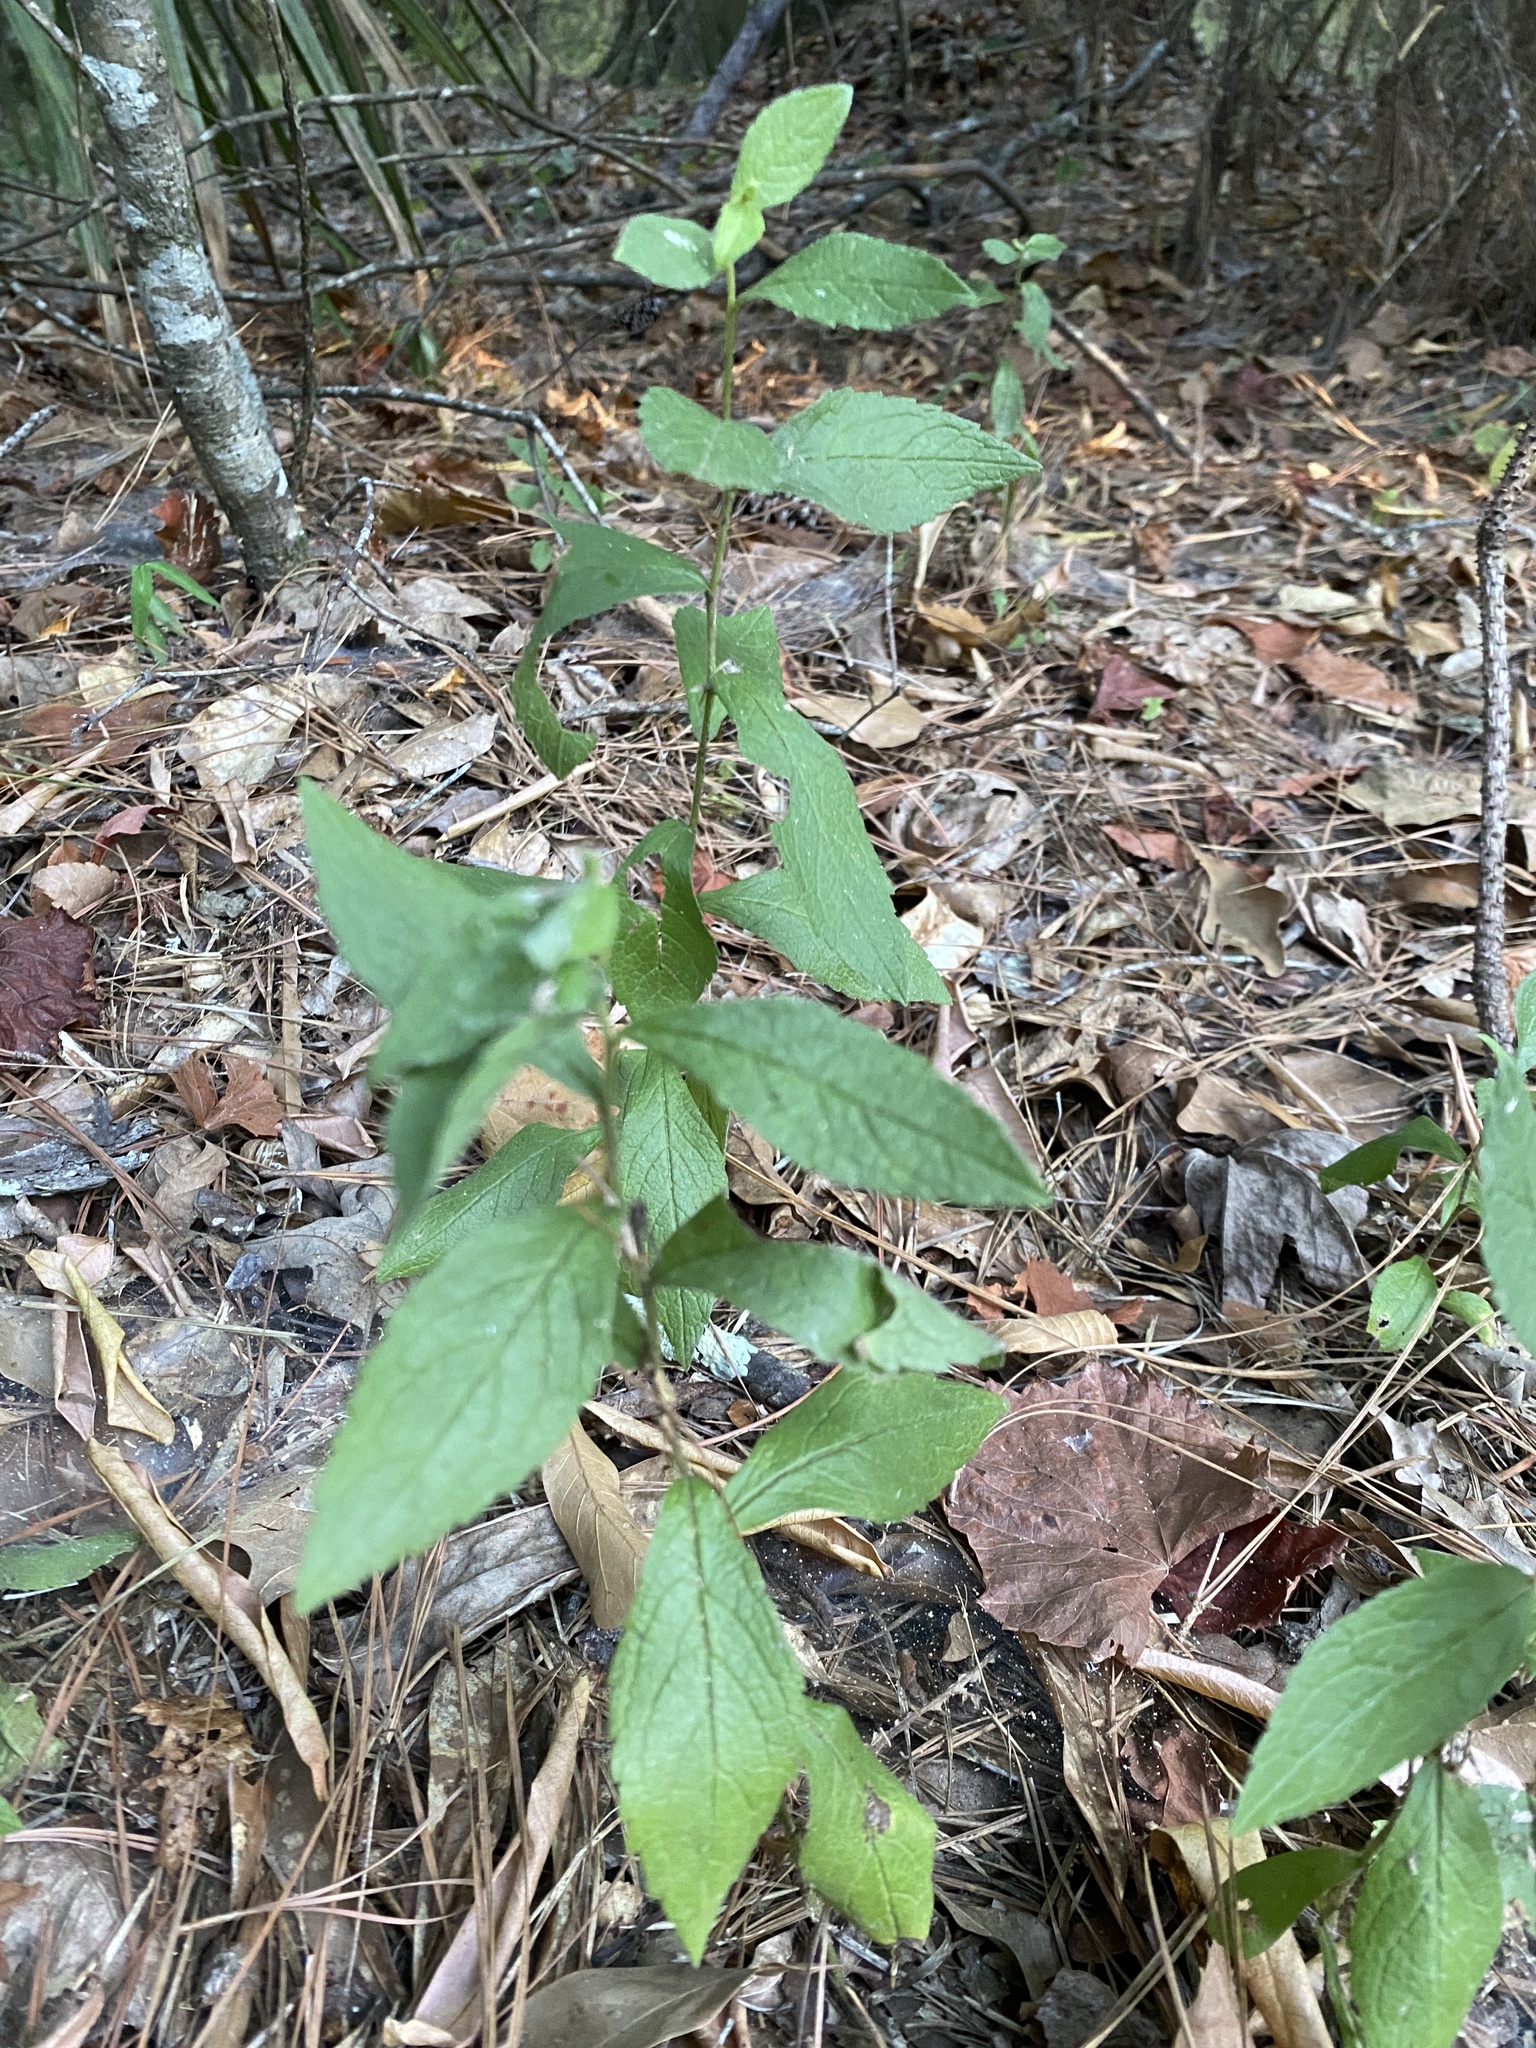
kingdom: Plantae
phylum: Tracheophyta
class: Magnoliopsida
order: Asterales
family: Asteraceae
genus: Solidago
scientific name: Solidago rugosa
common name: Rough-stemmed goldenrod
